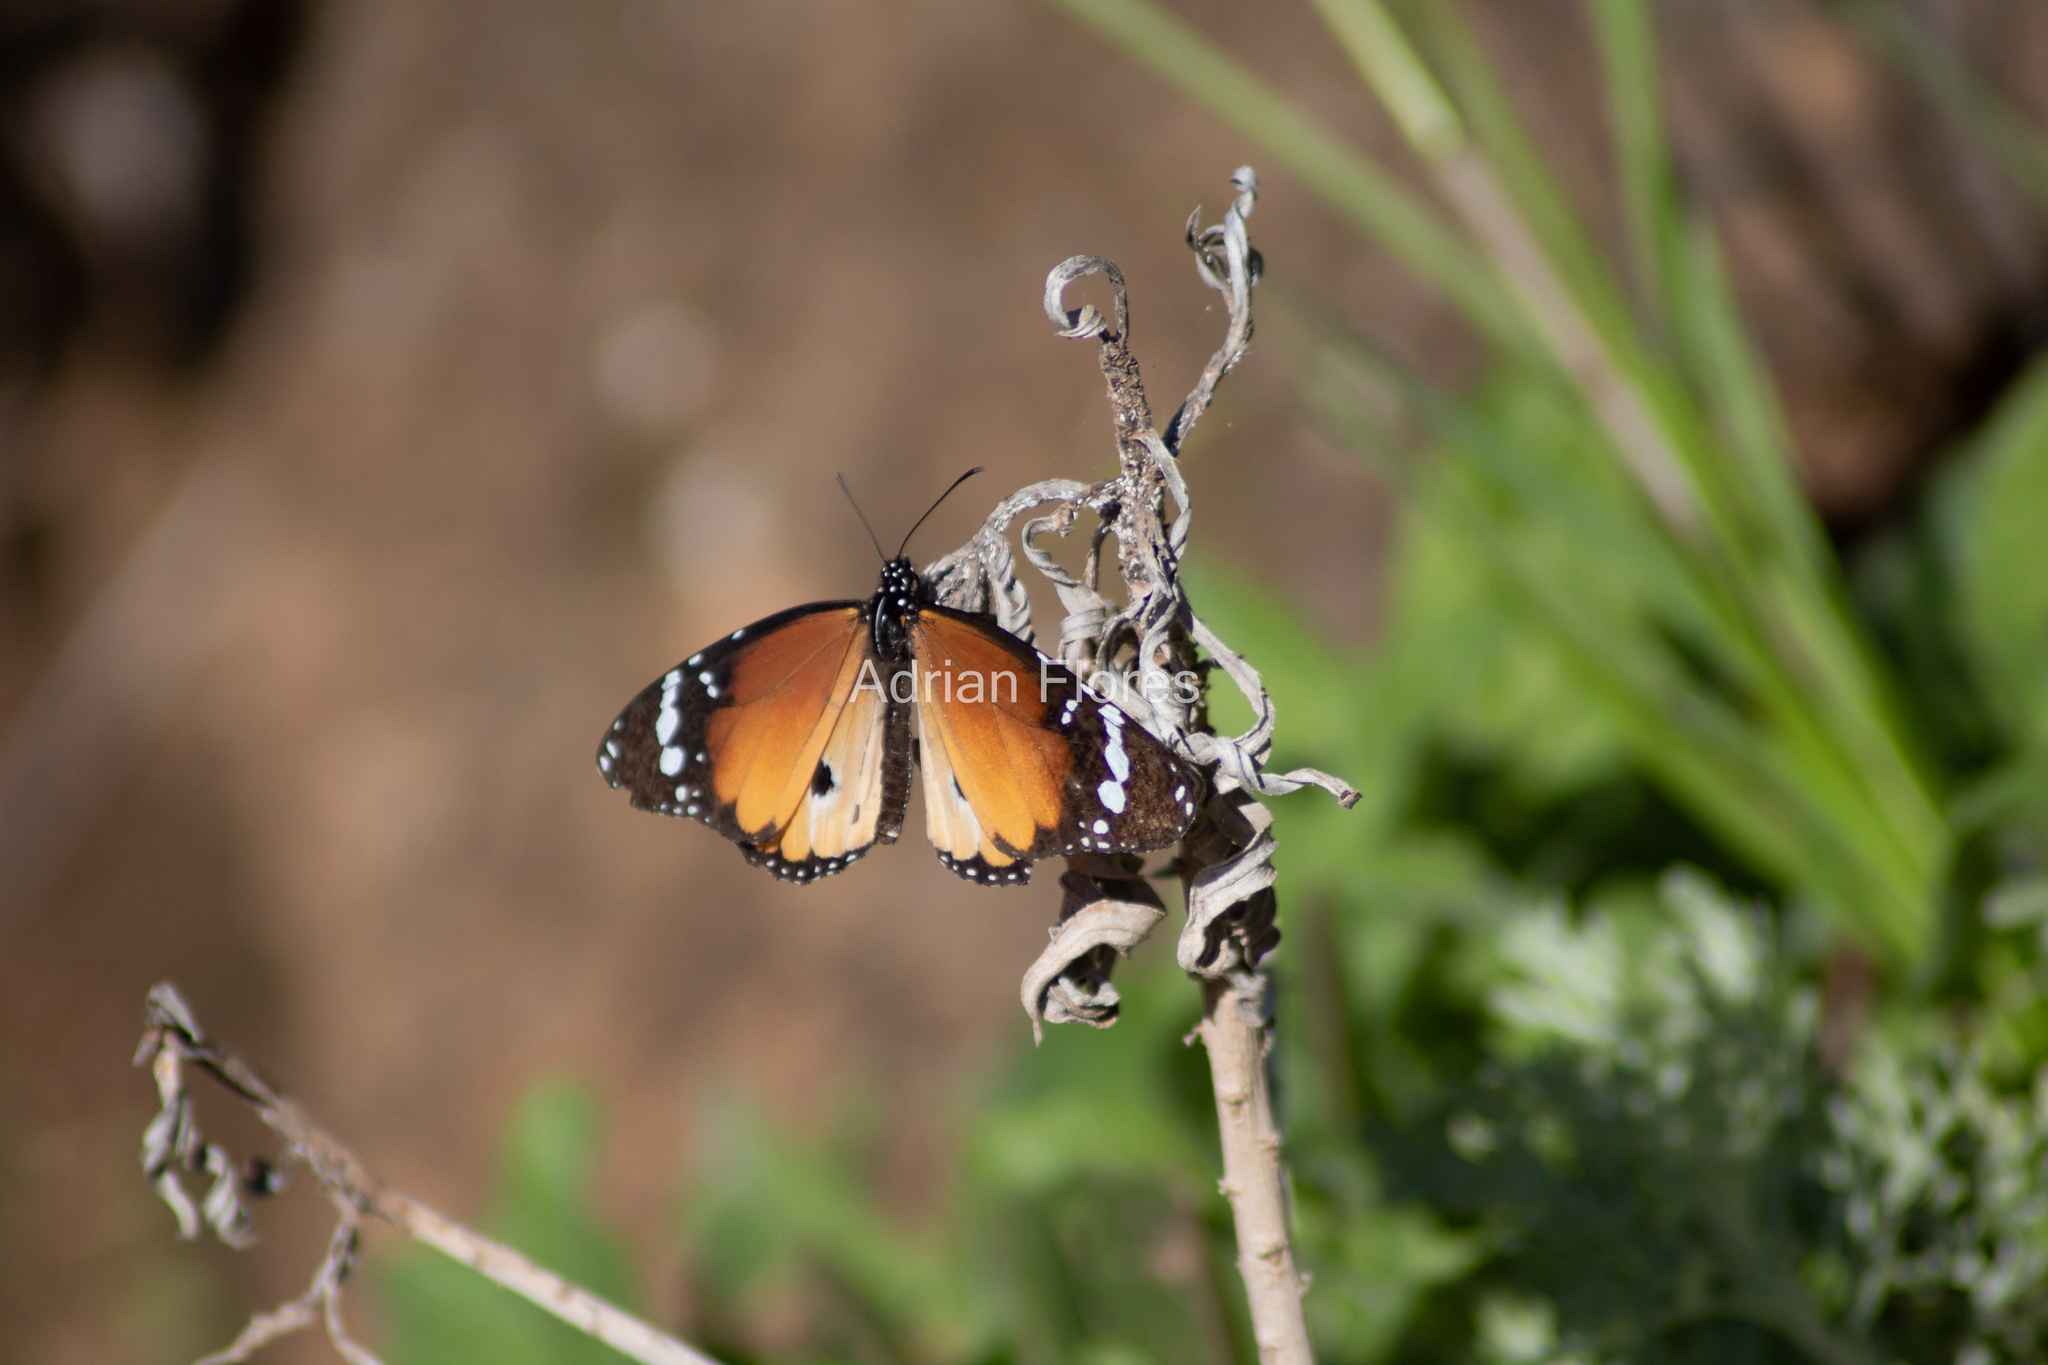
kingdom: Animalia
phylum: Arthropoda
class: Insecta
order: Lepidoptera
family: Nymphalidae
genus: Danaus
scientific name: Danaus chrysippus
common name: Plain tiger
